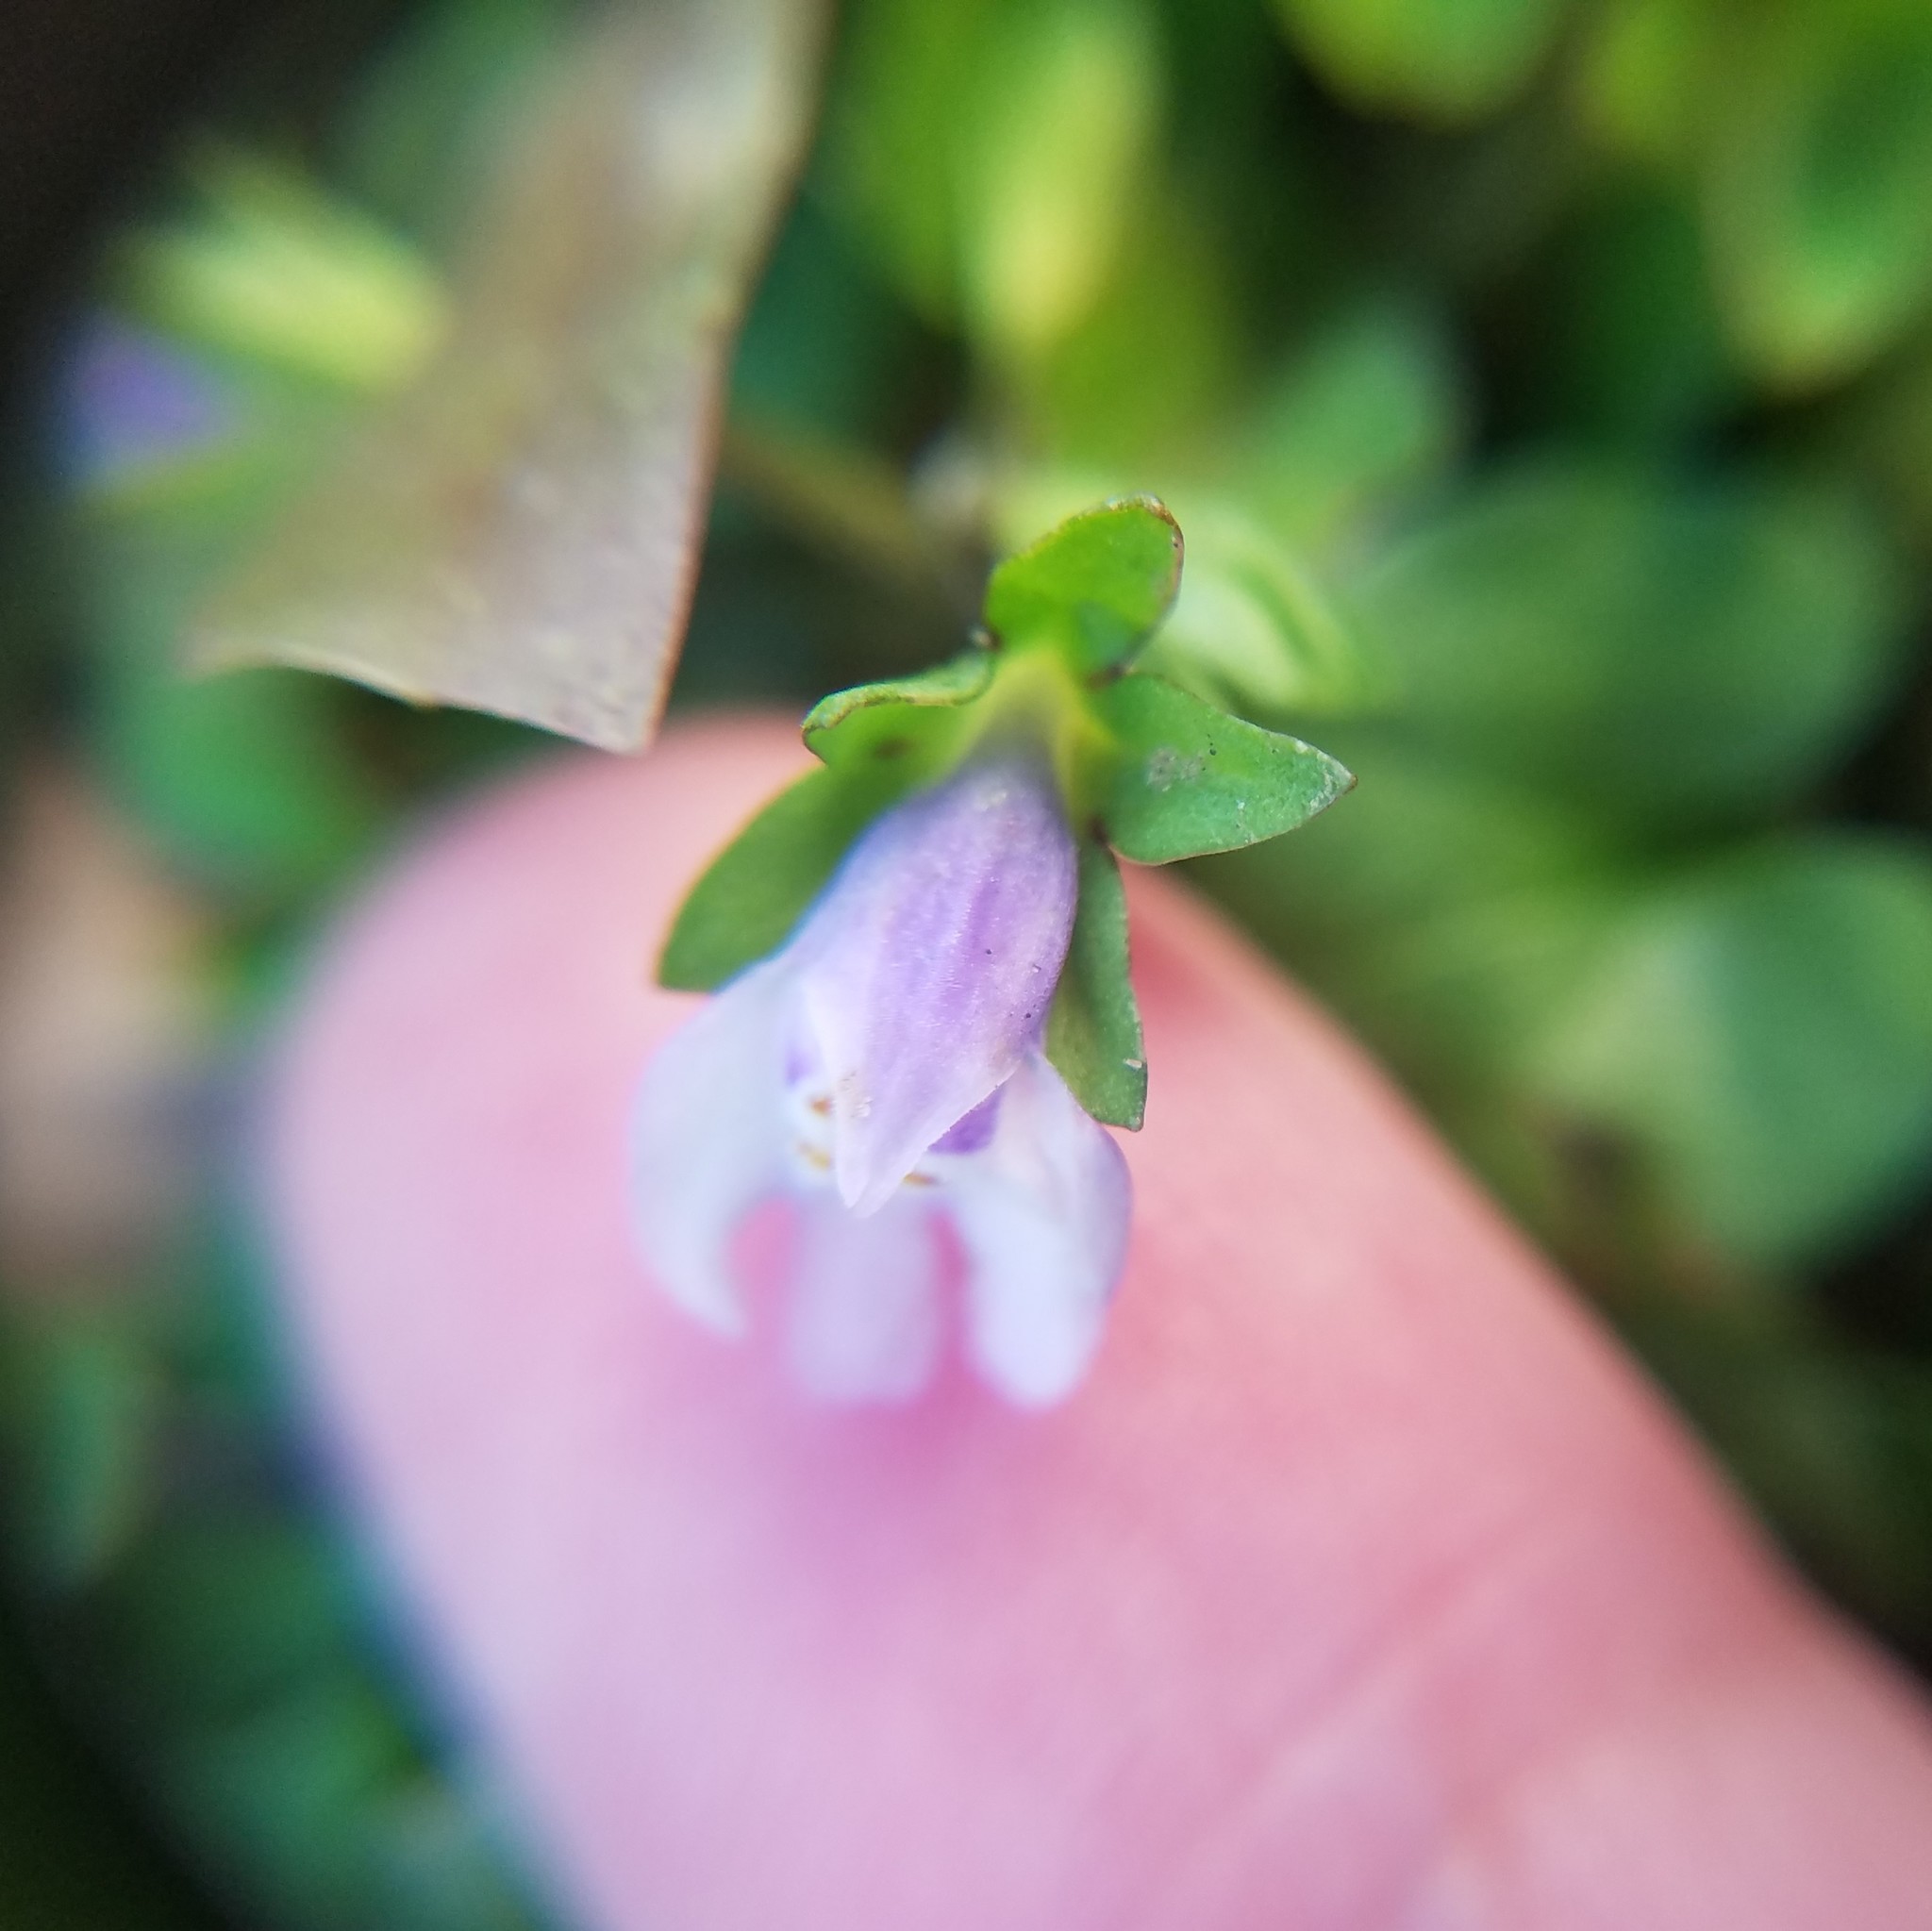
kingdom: Plantae
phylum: Tracheophyta
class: Magnoliopsida
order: Lamiales
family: Mazaceae
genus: Mazus
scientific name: Mazus pumilus
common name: Japanese mazus
